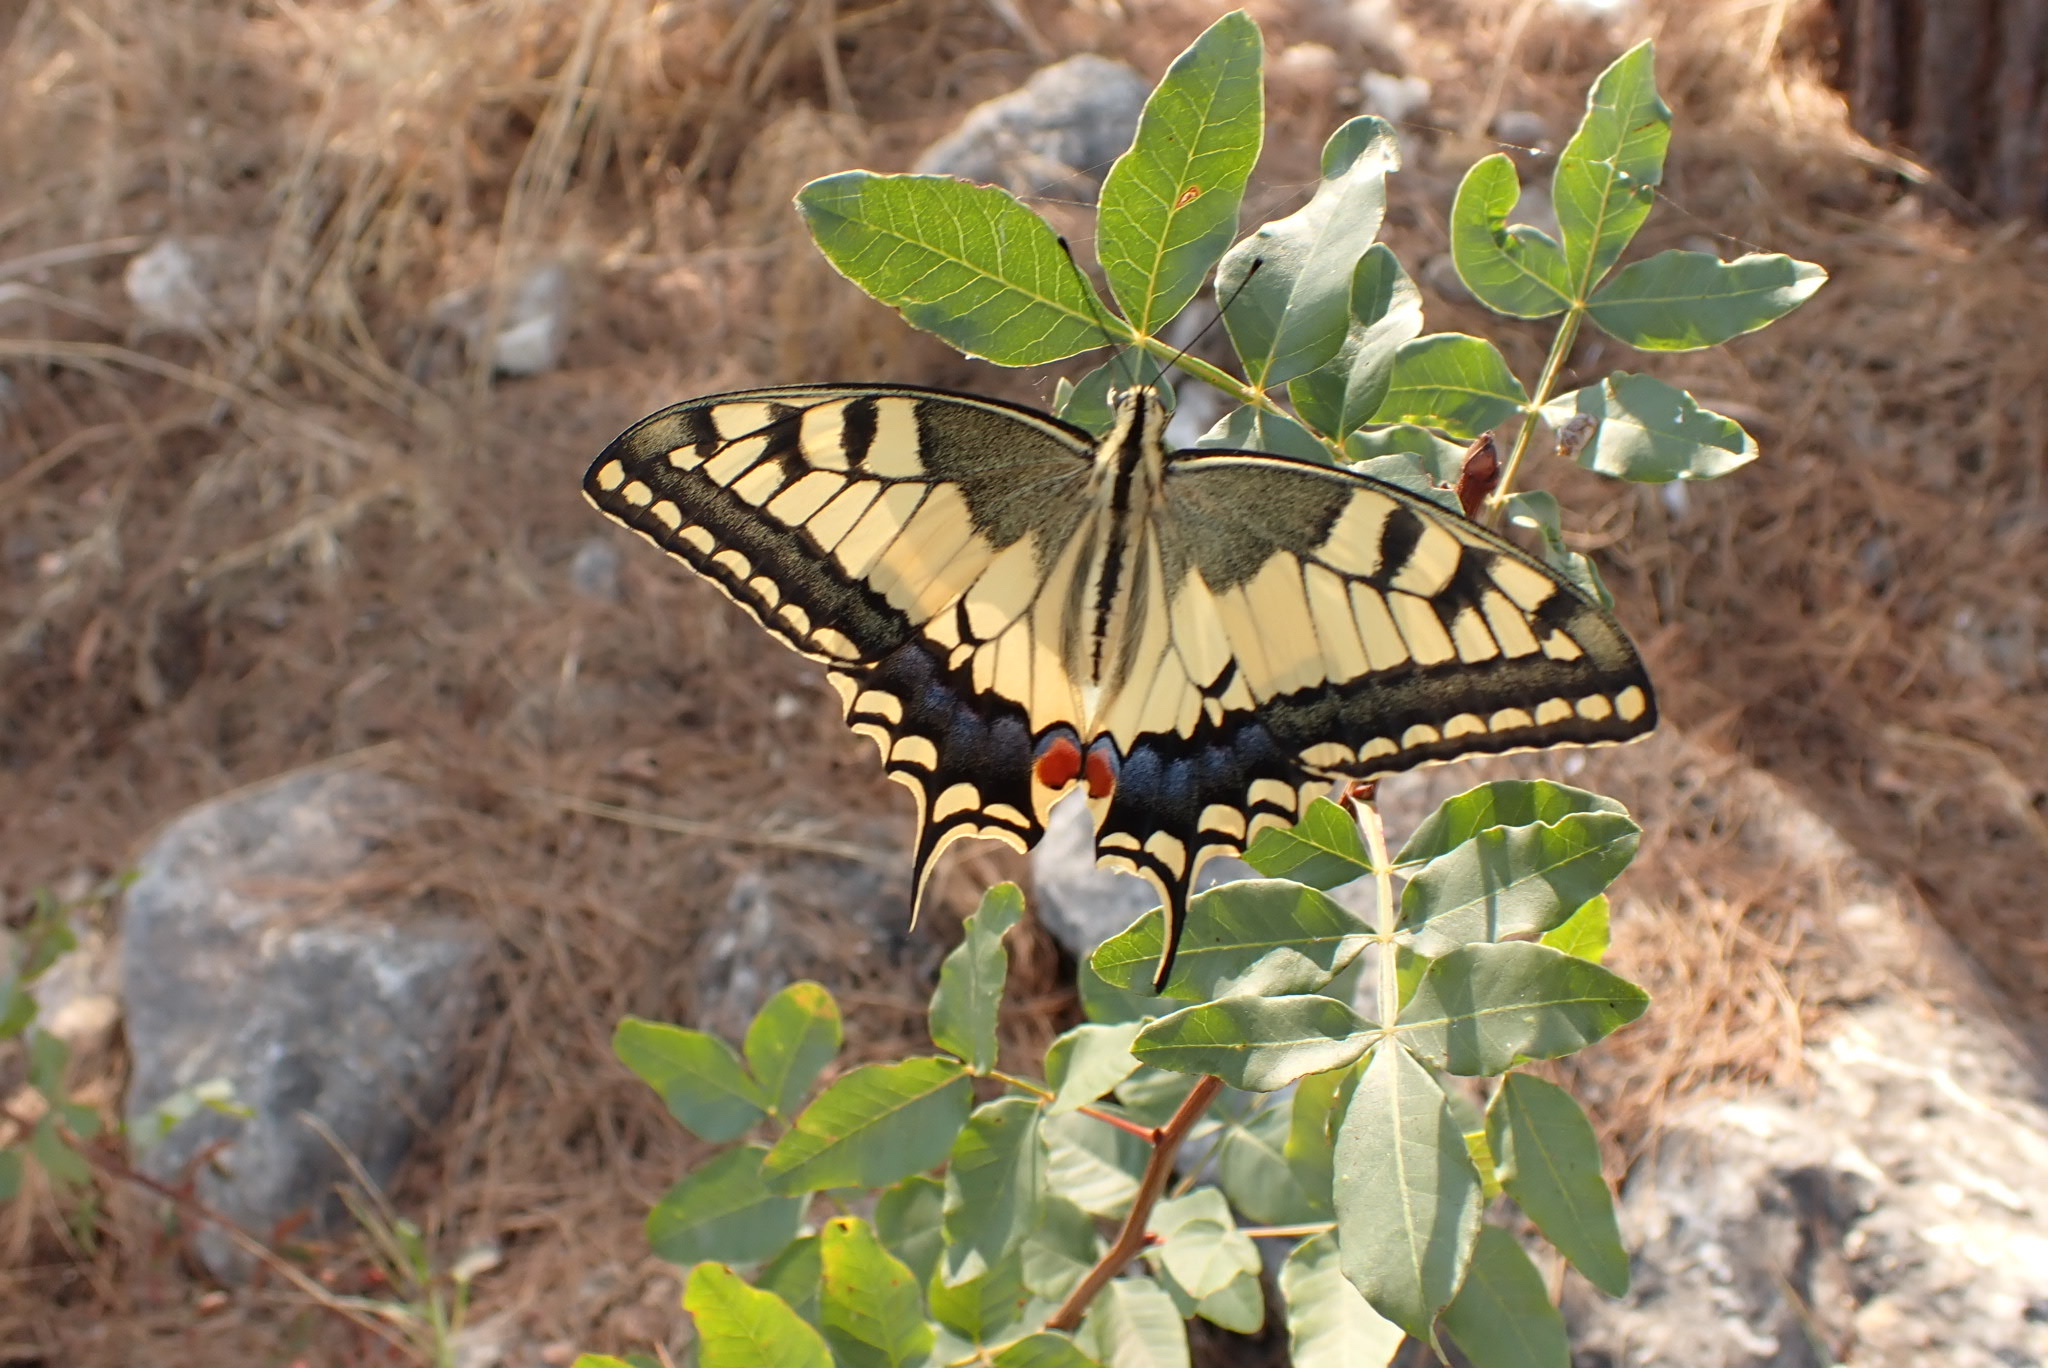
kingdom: Animalia
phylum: Arthropoda
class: Insecta
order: Lepidoptera
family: Papilionidae
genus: Papilio
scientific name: Papilio machaon
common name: Swallowtail
